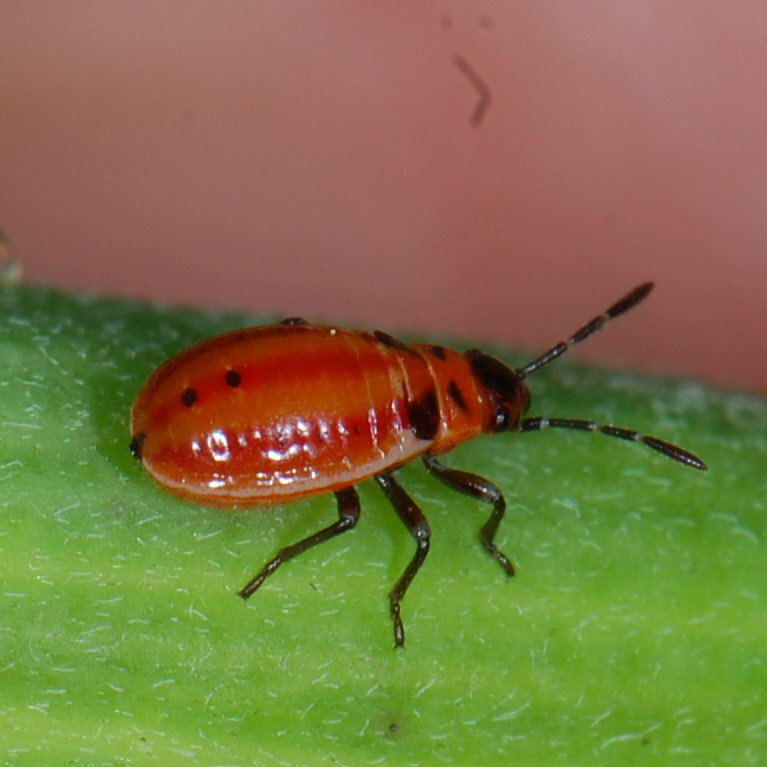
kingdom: Animalia
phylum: Arthropoda
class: Insecta
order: Hemiptera
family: Lygaeidae
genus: Lygaeus
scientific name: Lygaeus kalmii
